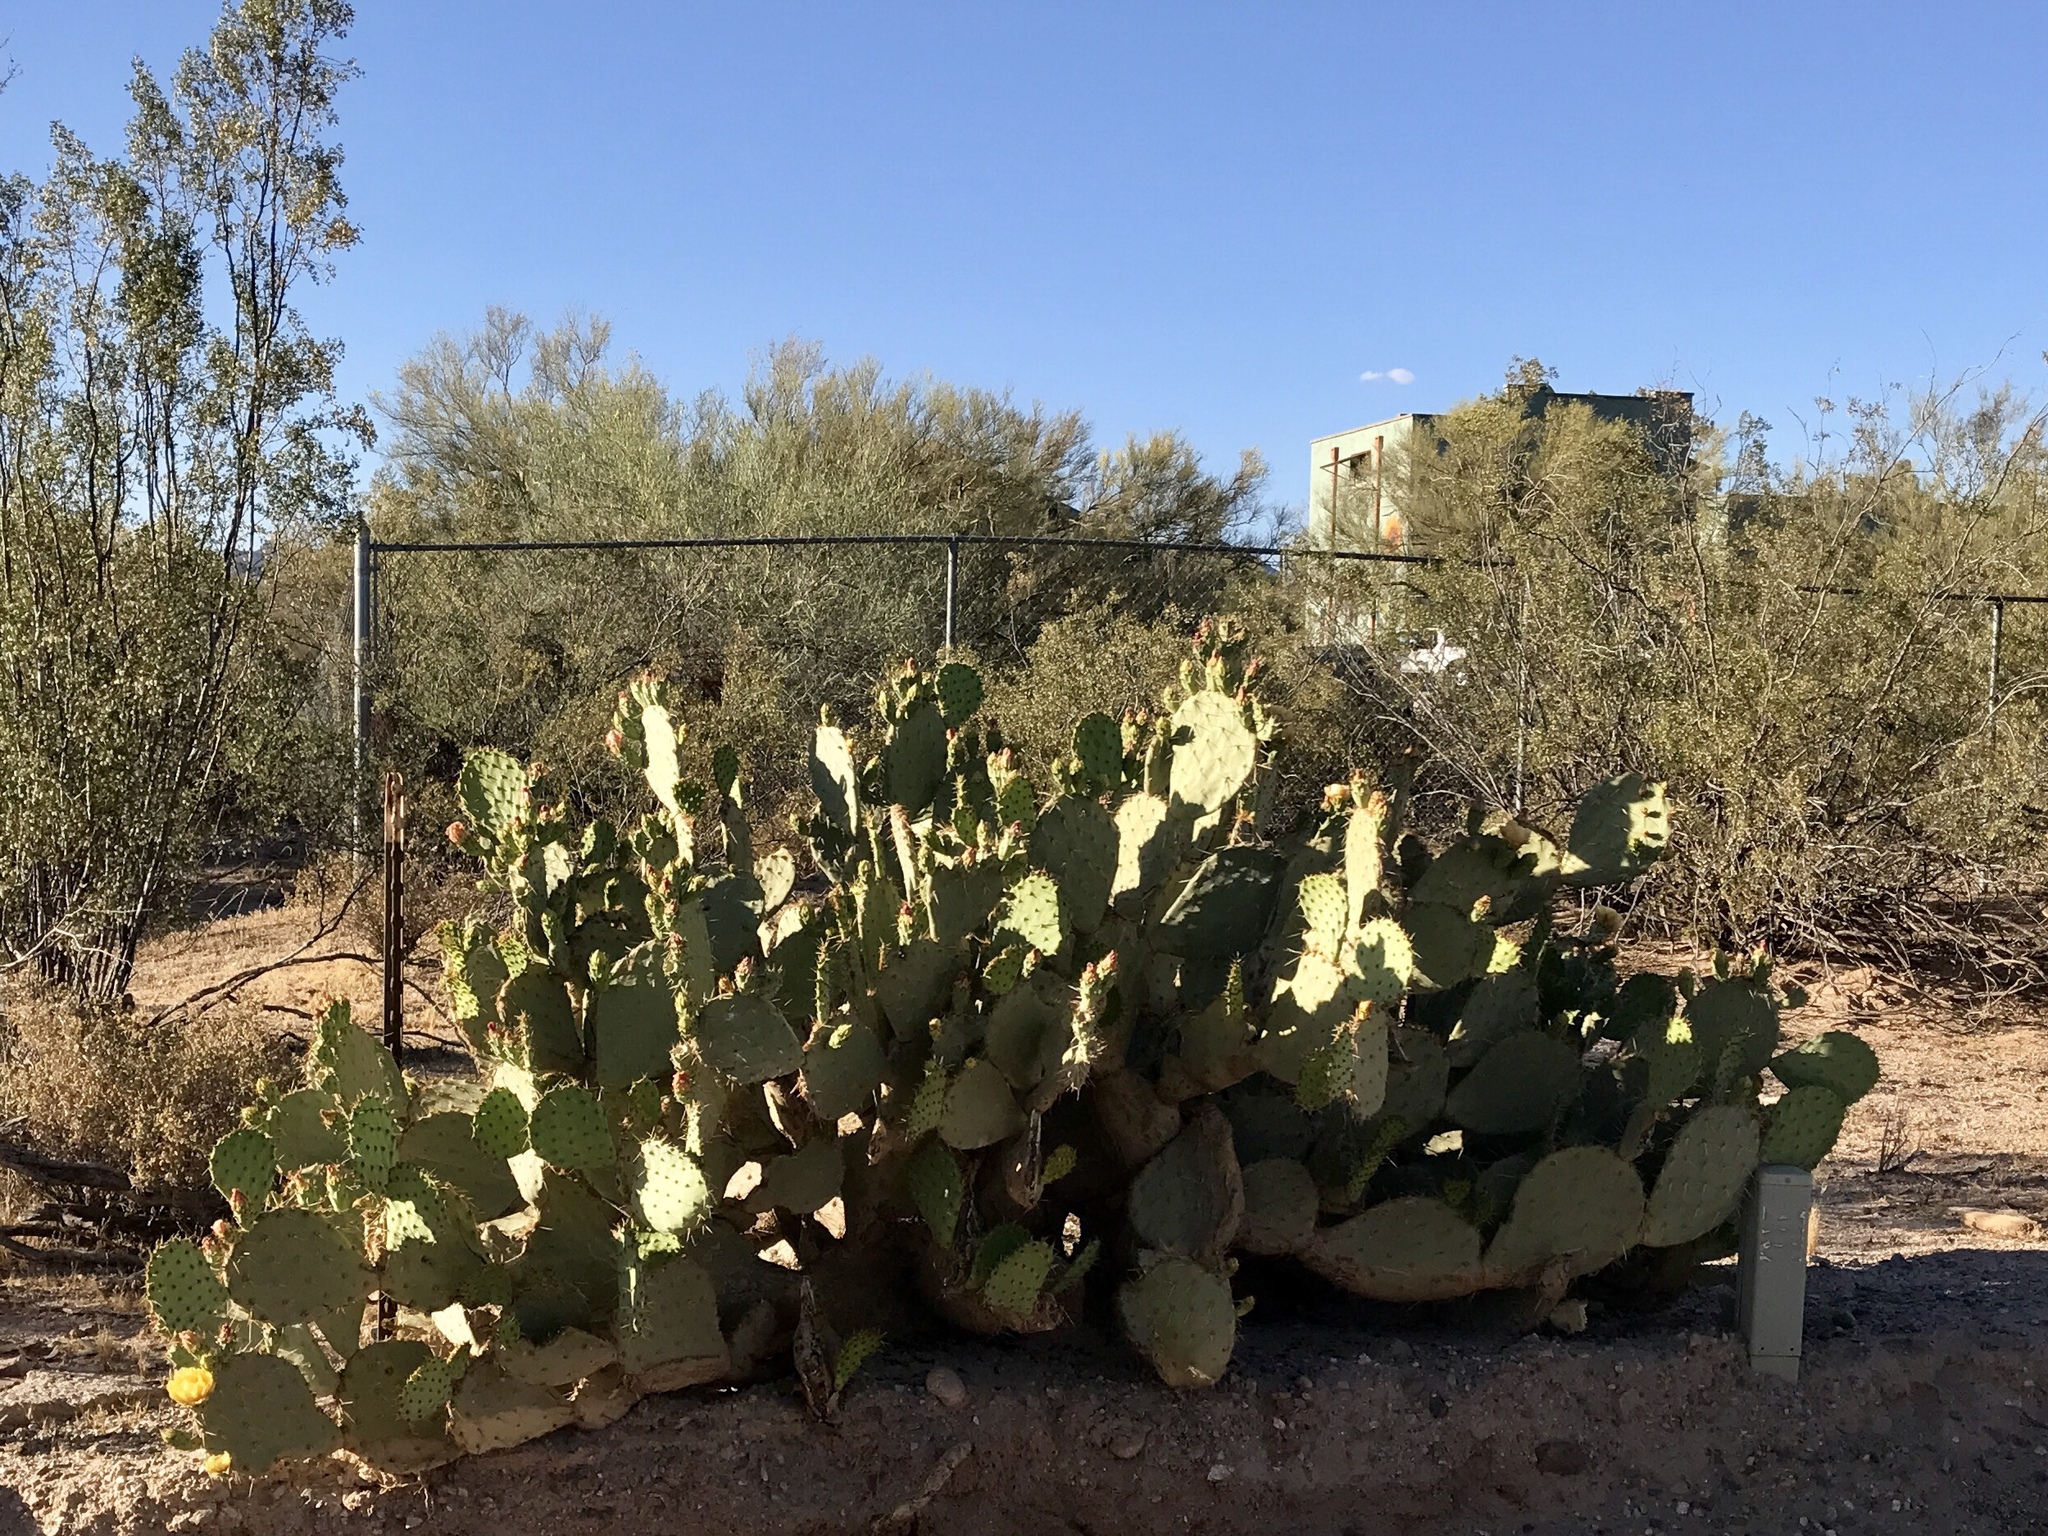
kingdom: Plantae
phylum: Tracheophyta
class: Magnoliopsida
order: Caryophyllales
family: Cactaceae
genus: Opuntia
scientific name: Opuntia engelmannii
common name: Cactus-apple
